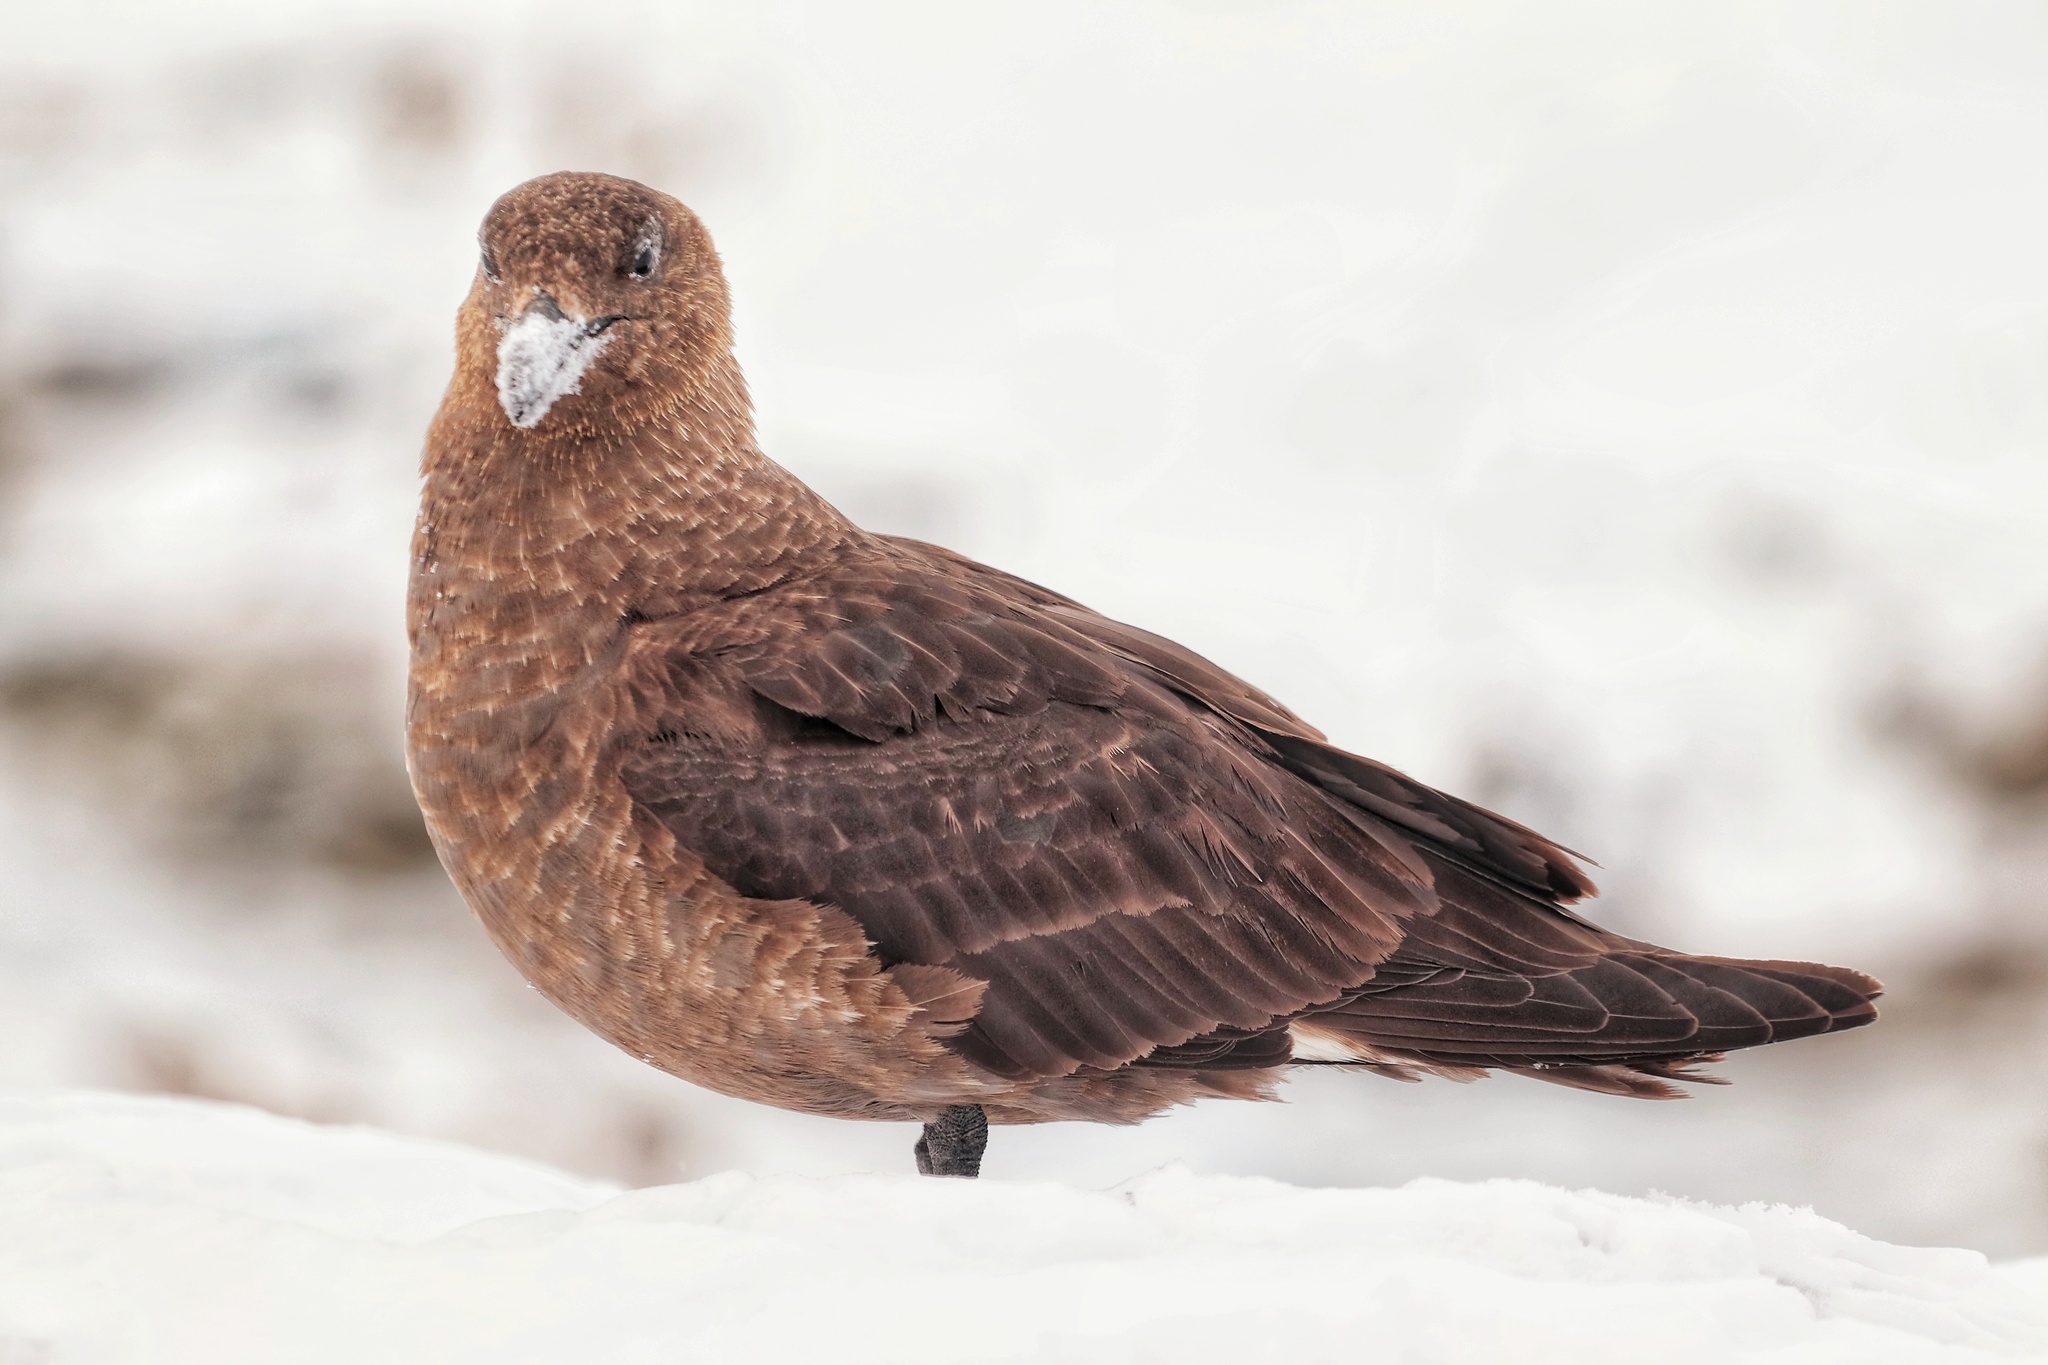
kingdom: Animalia
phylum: Chordata
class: Aves
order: Charadriiformes
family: Stercorariidae
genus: Stercorarius
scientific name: Stercorarius maccormicki
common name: South polar skua
